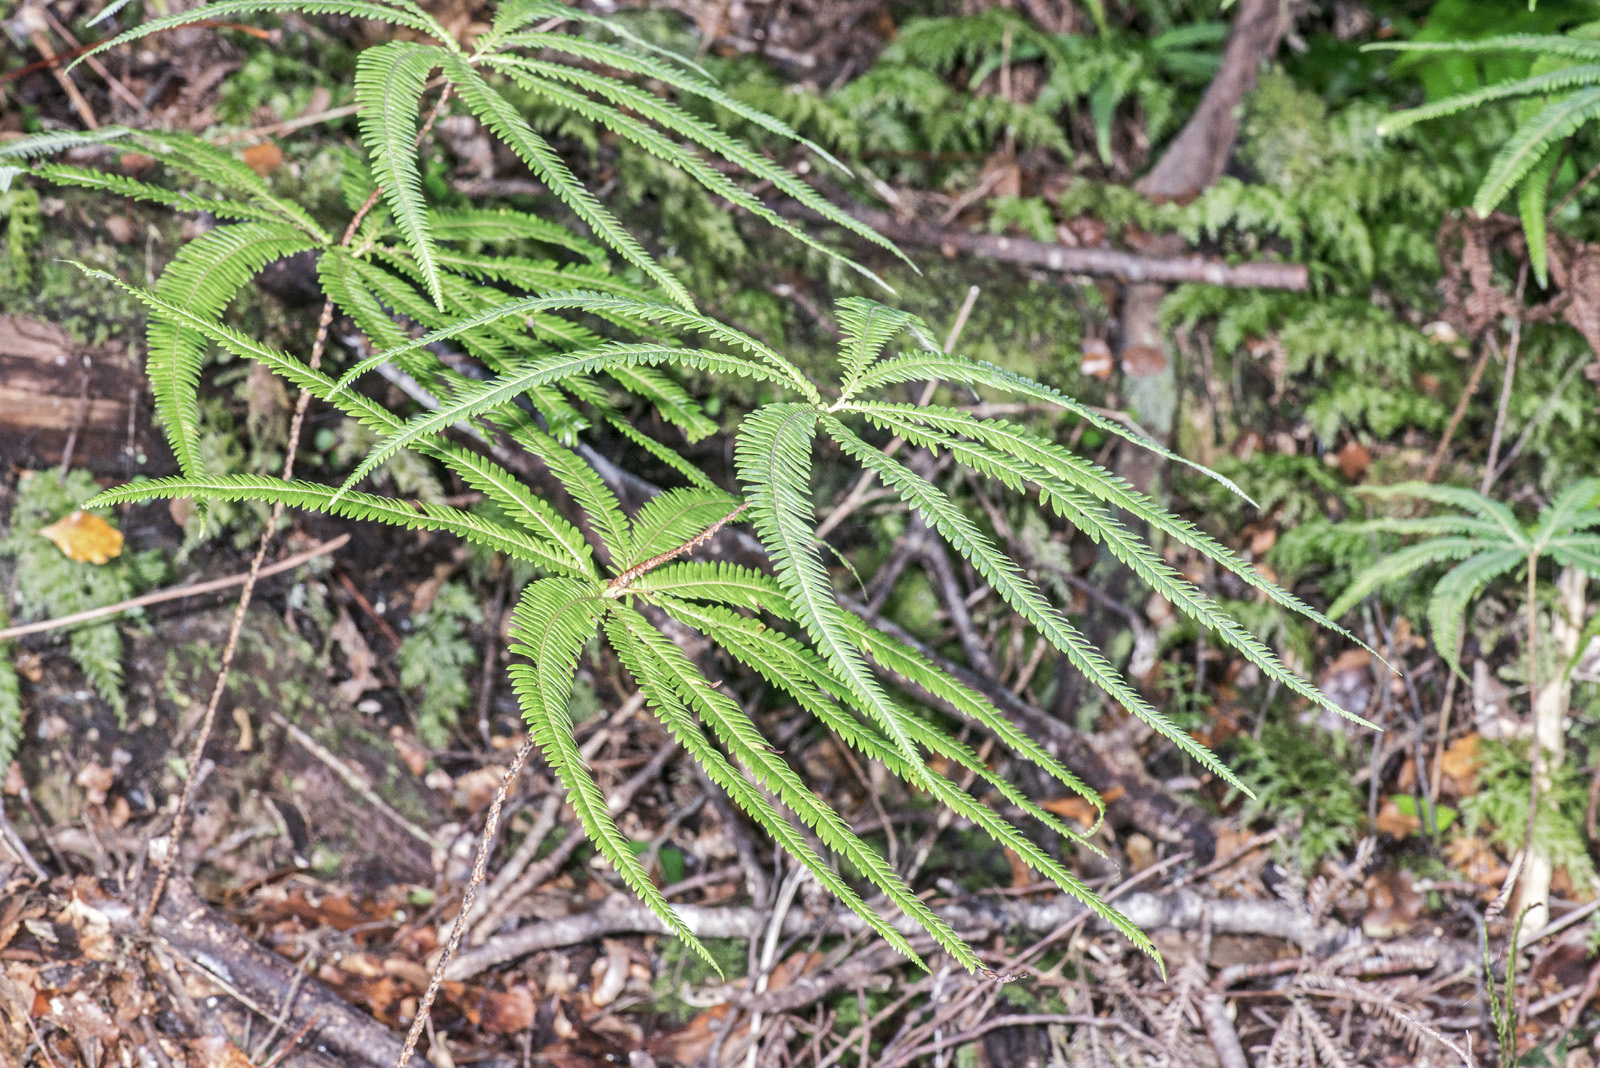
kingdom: Plantae
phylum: Tracheophyta
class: Polypodiopsida
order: Gleicheniales
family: Gleicheniaceae
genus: Sticherus
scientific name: Sticherus cunninghamii
